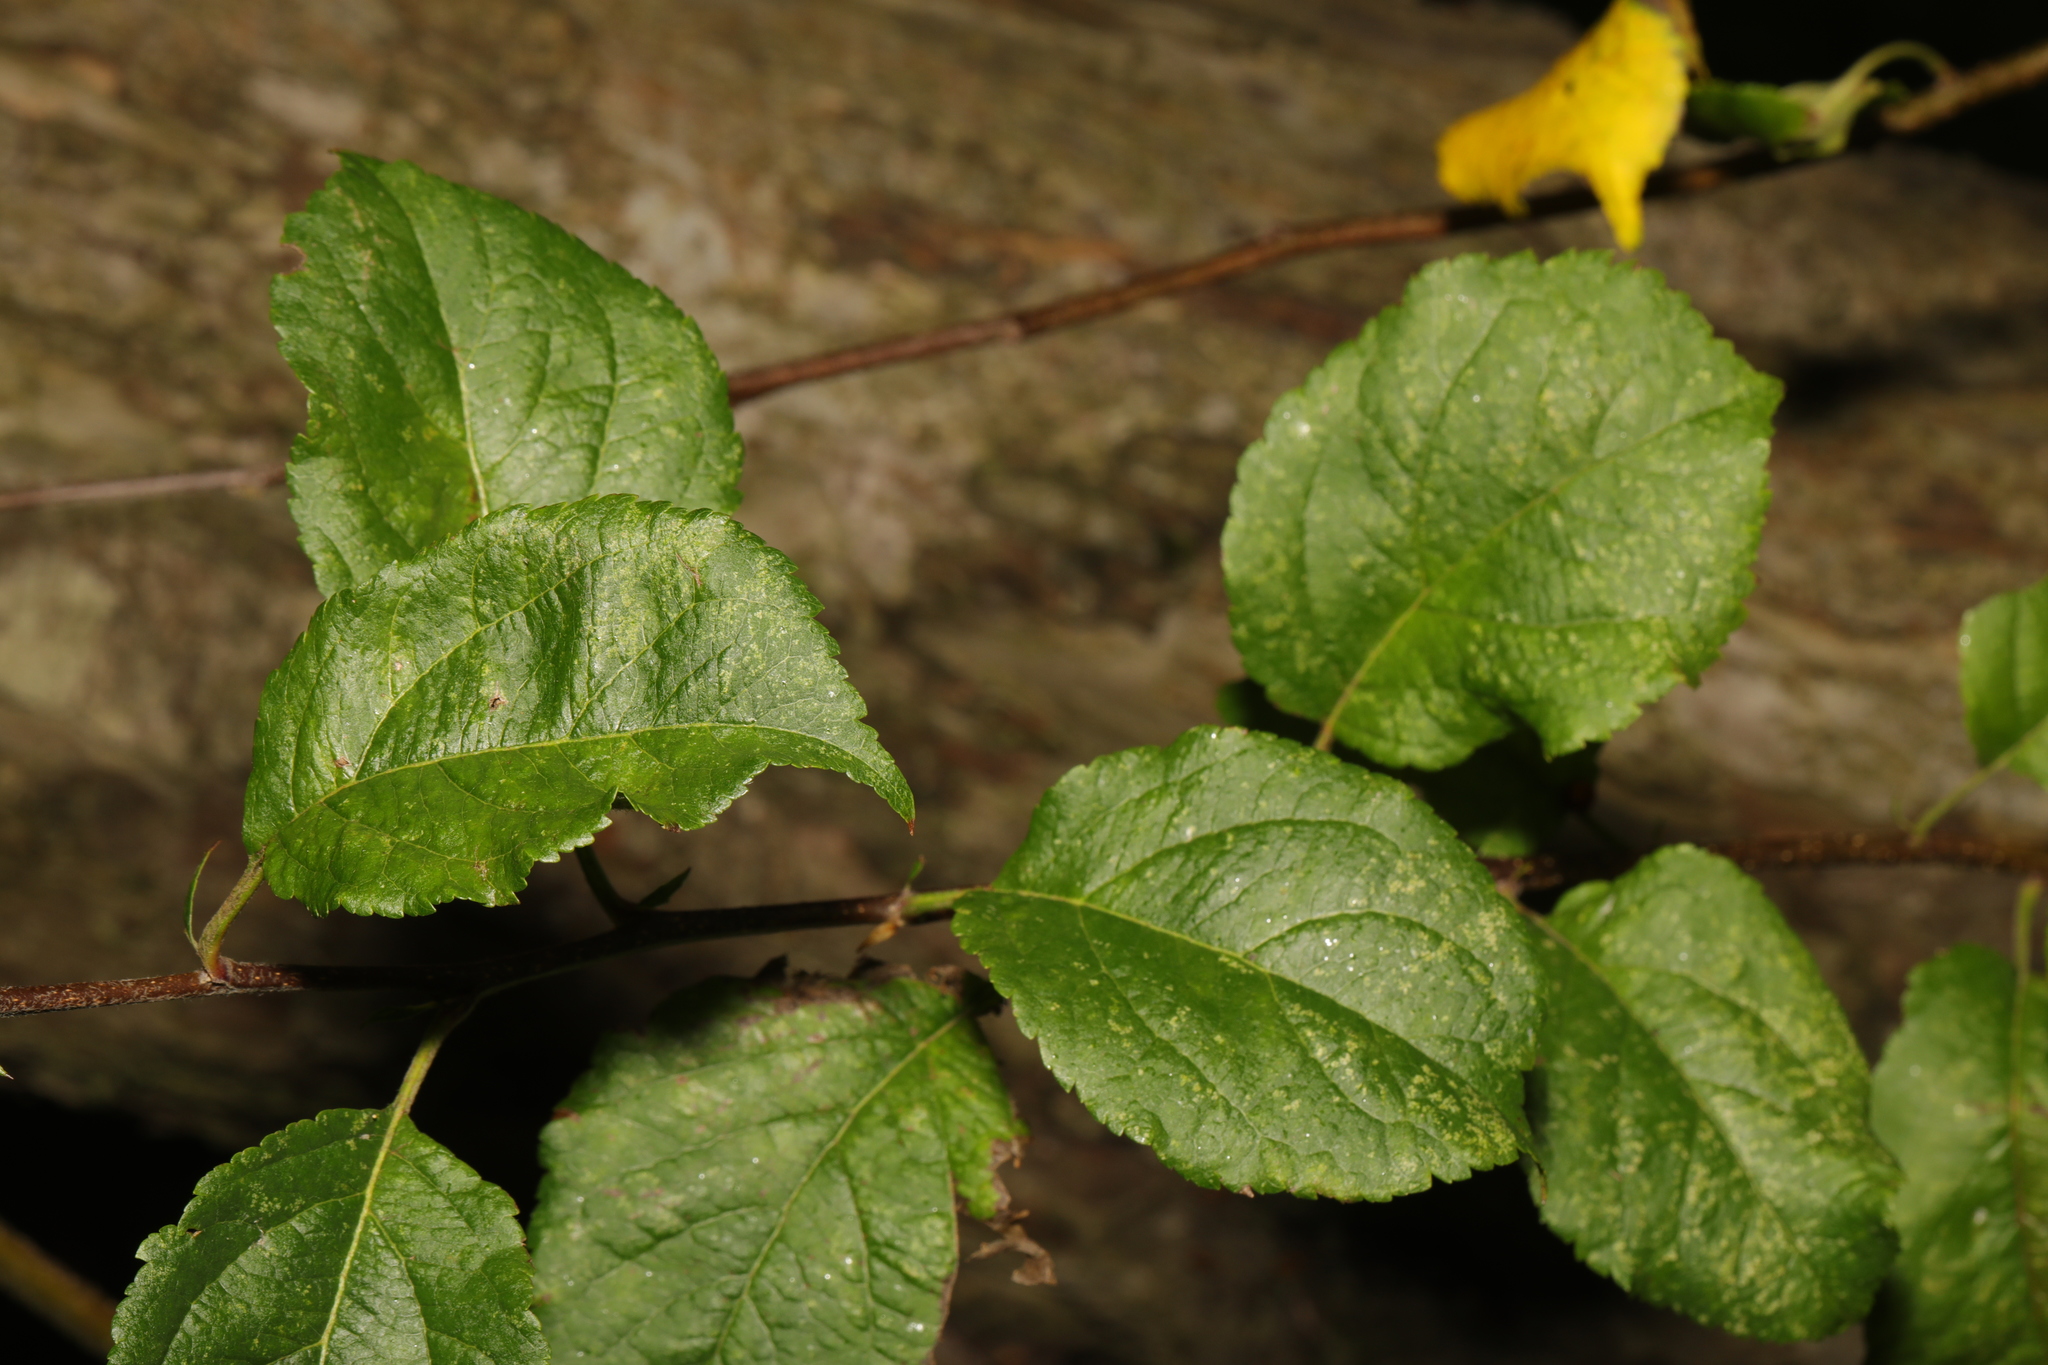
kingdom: Plantae
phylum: Tracheophyta
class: Magnoliopsida
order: Rosales
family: Rosaceae
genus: Malus
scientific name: Malus domestica
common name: Apple
